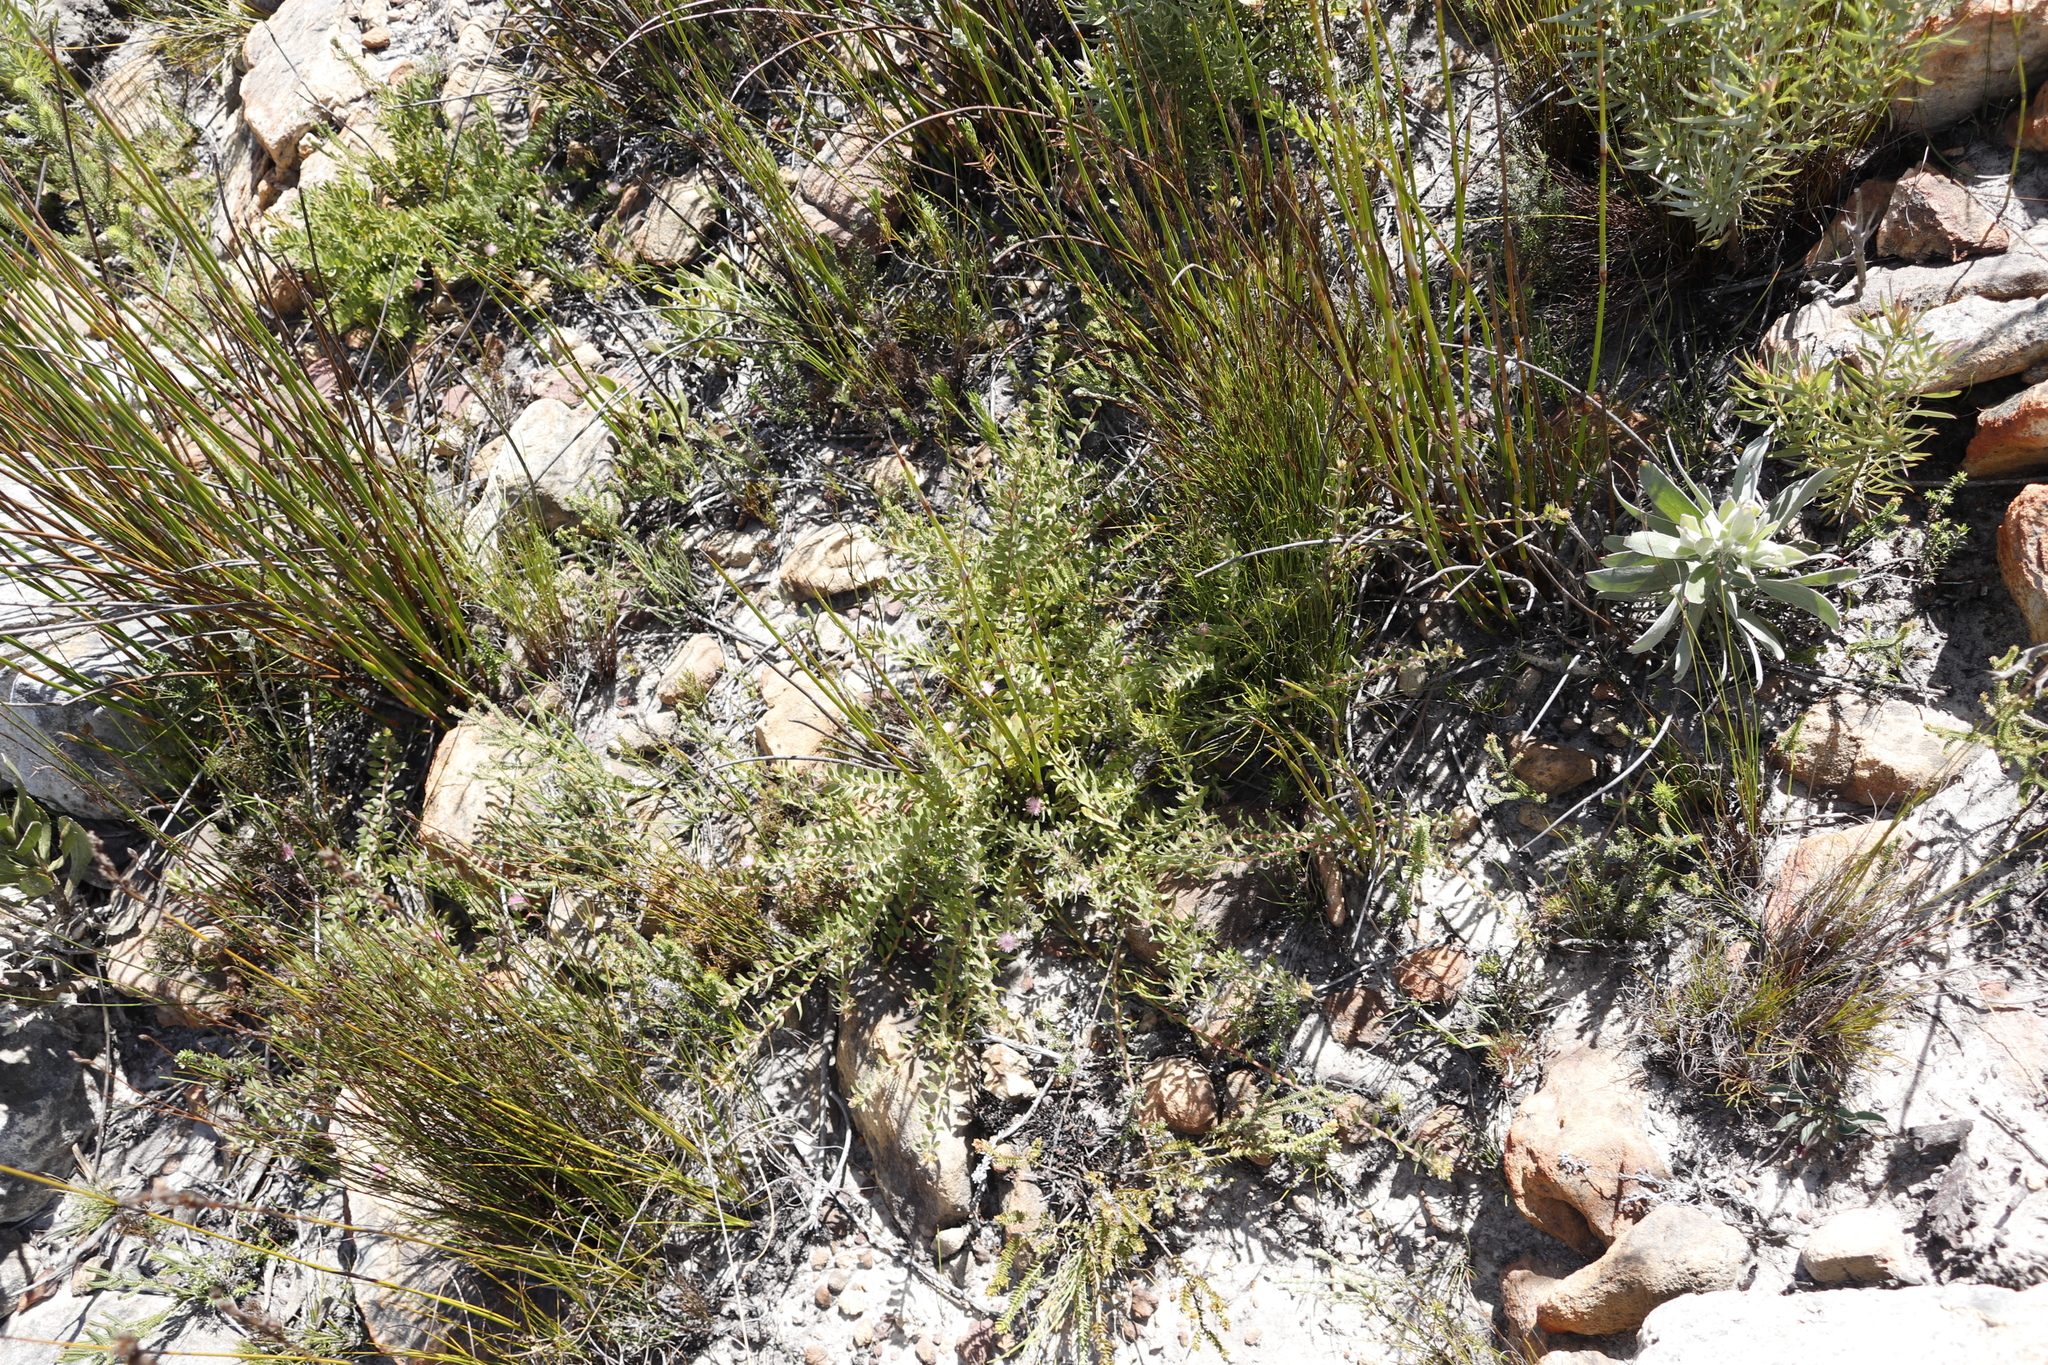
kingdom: Plantae
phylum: Tracheophyta
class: Magnoliopsida
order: Proteales
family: Proteaceae
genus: Diastella
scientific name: Diastella divaricata
